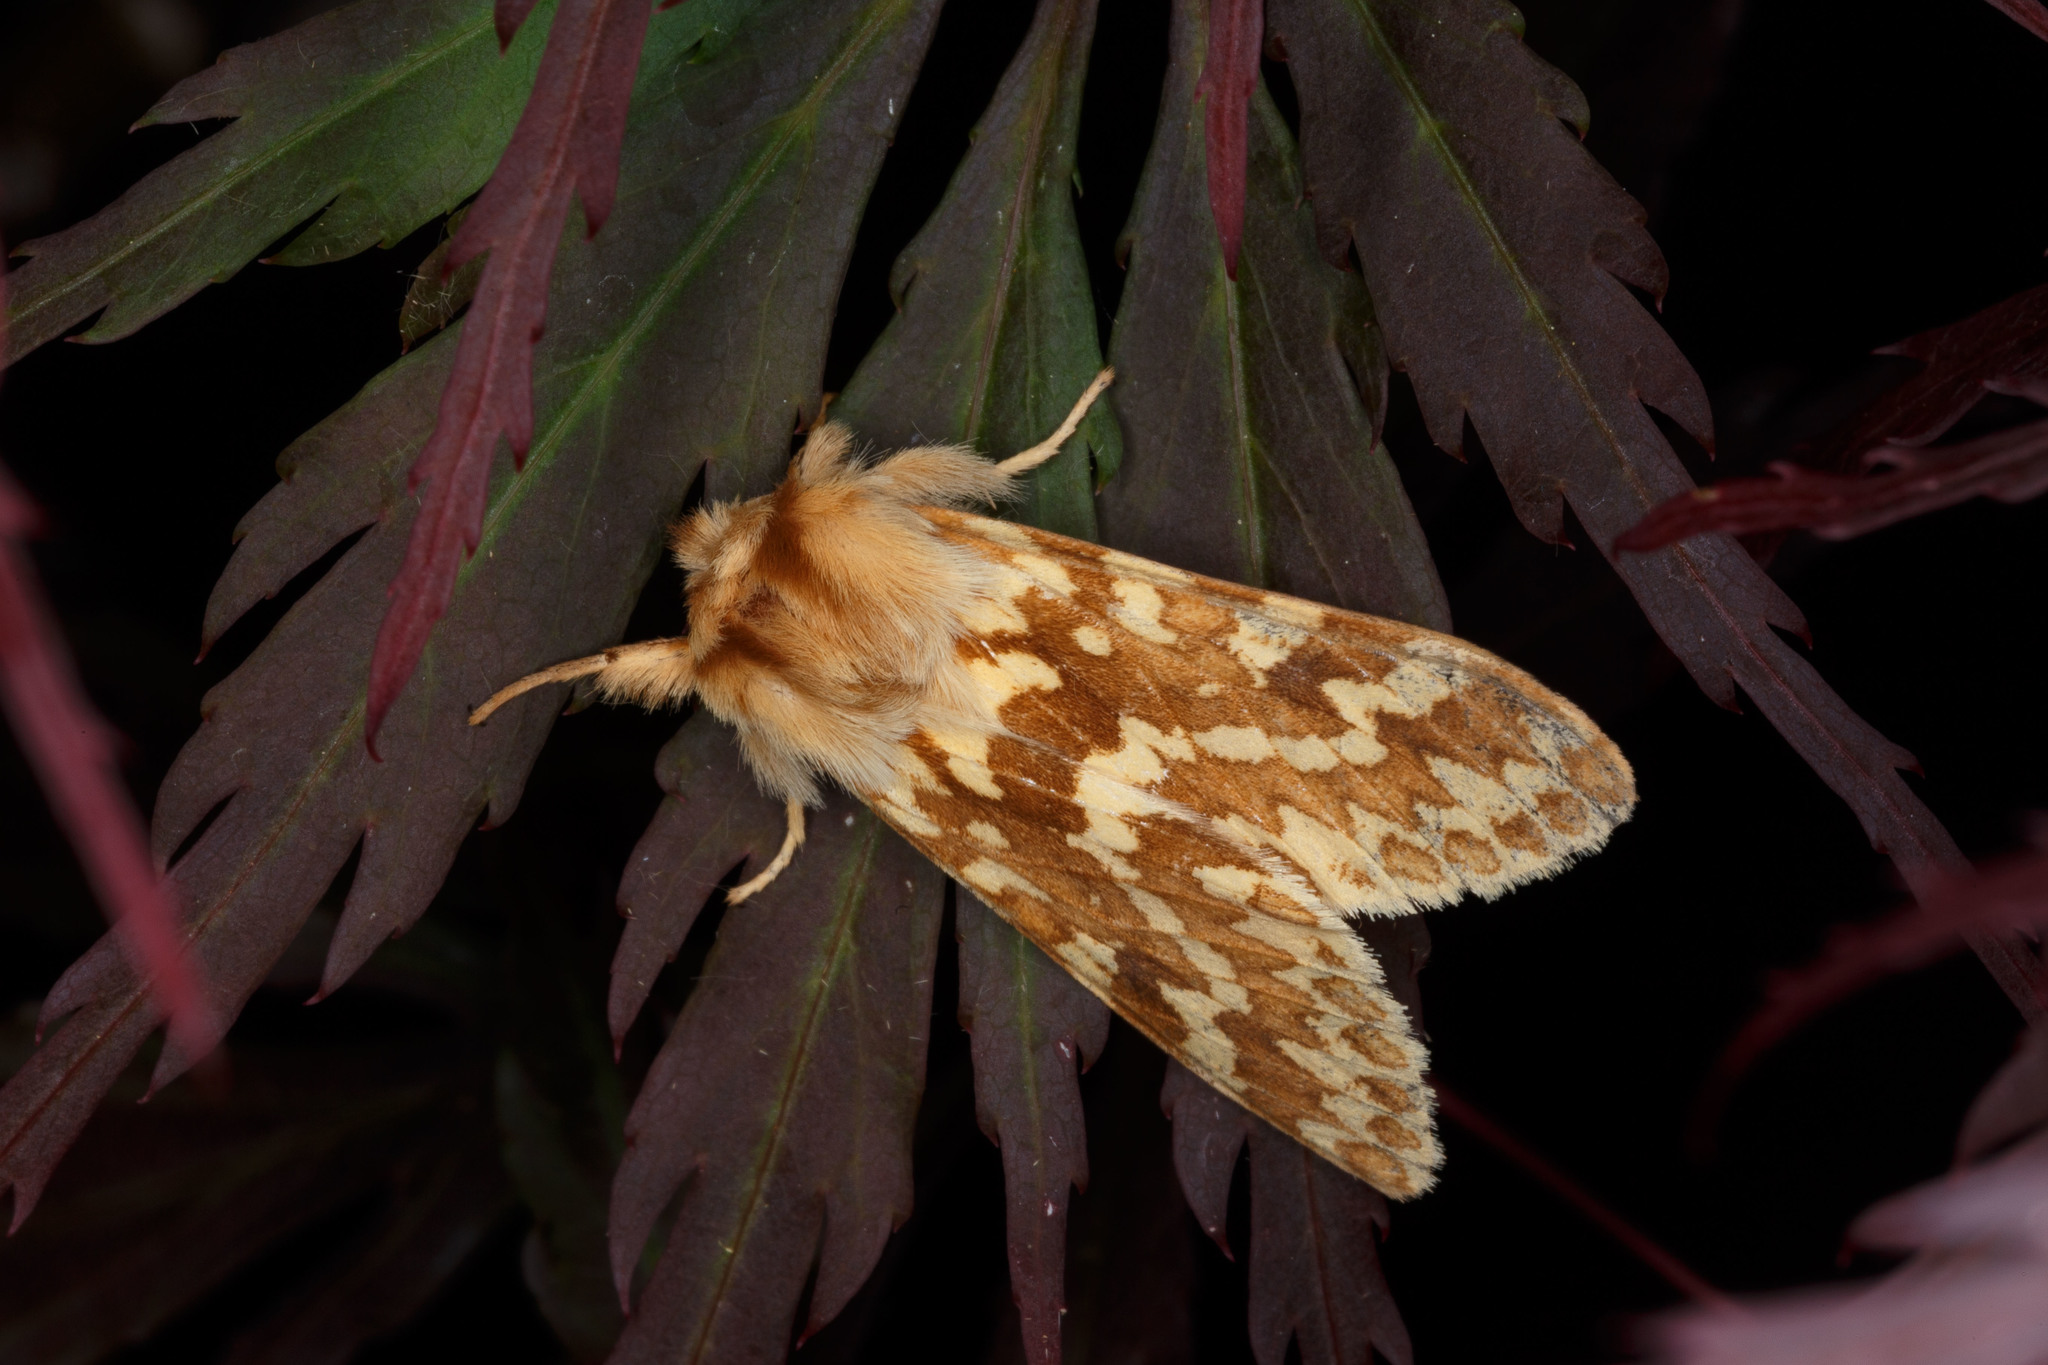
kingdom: Animalia
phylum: Arthropoda
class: Insecta
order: Lepidoptera
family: Erebidae
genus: Lophocampa
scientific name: Lophocampa maculata
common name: Spotted tussock moth
